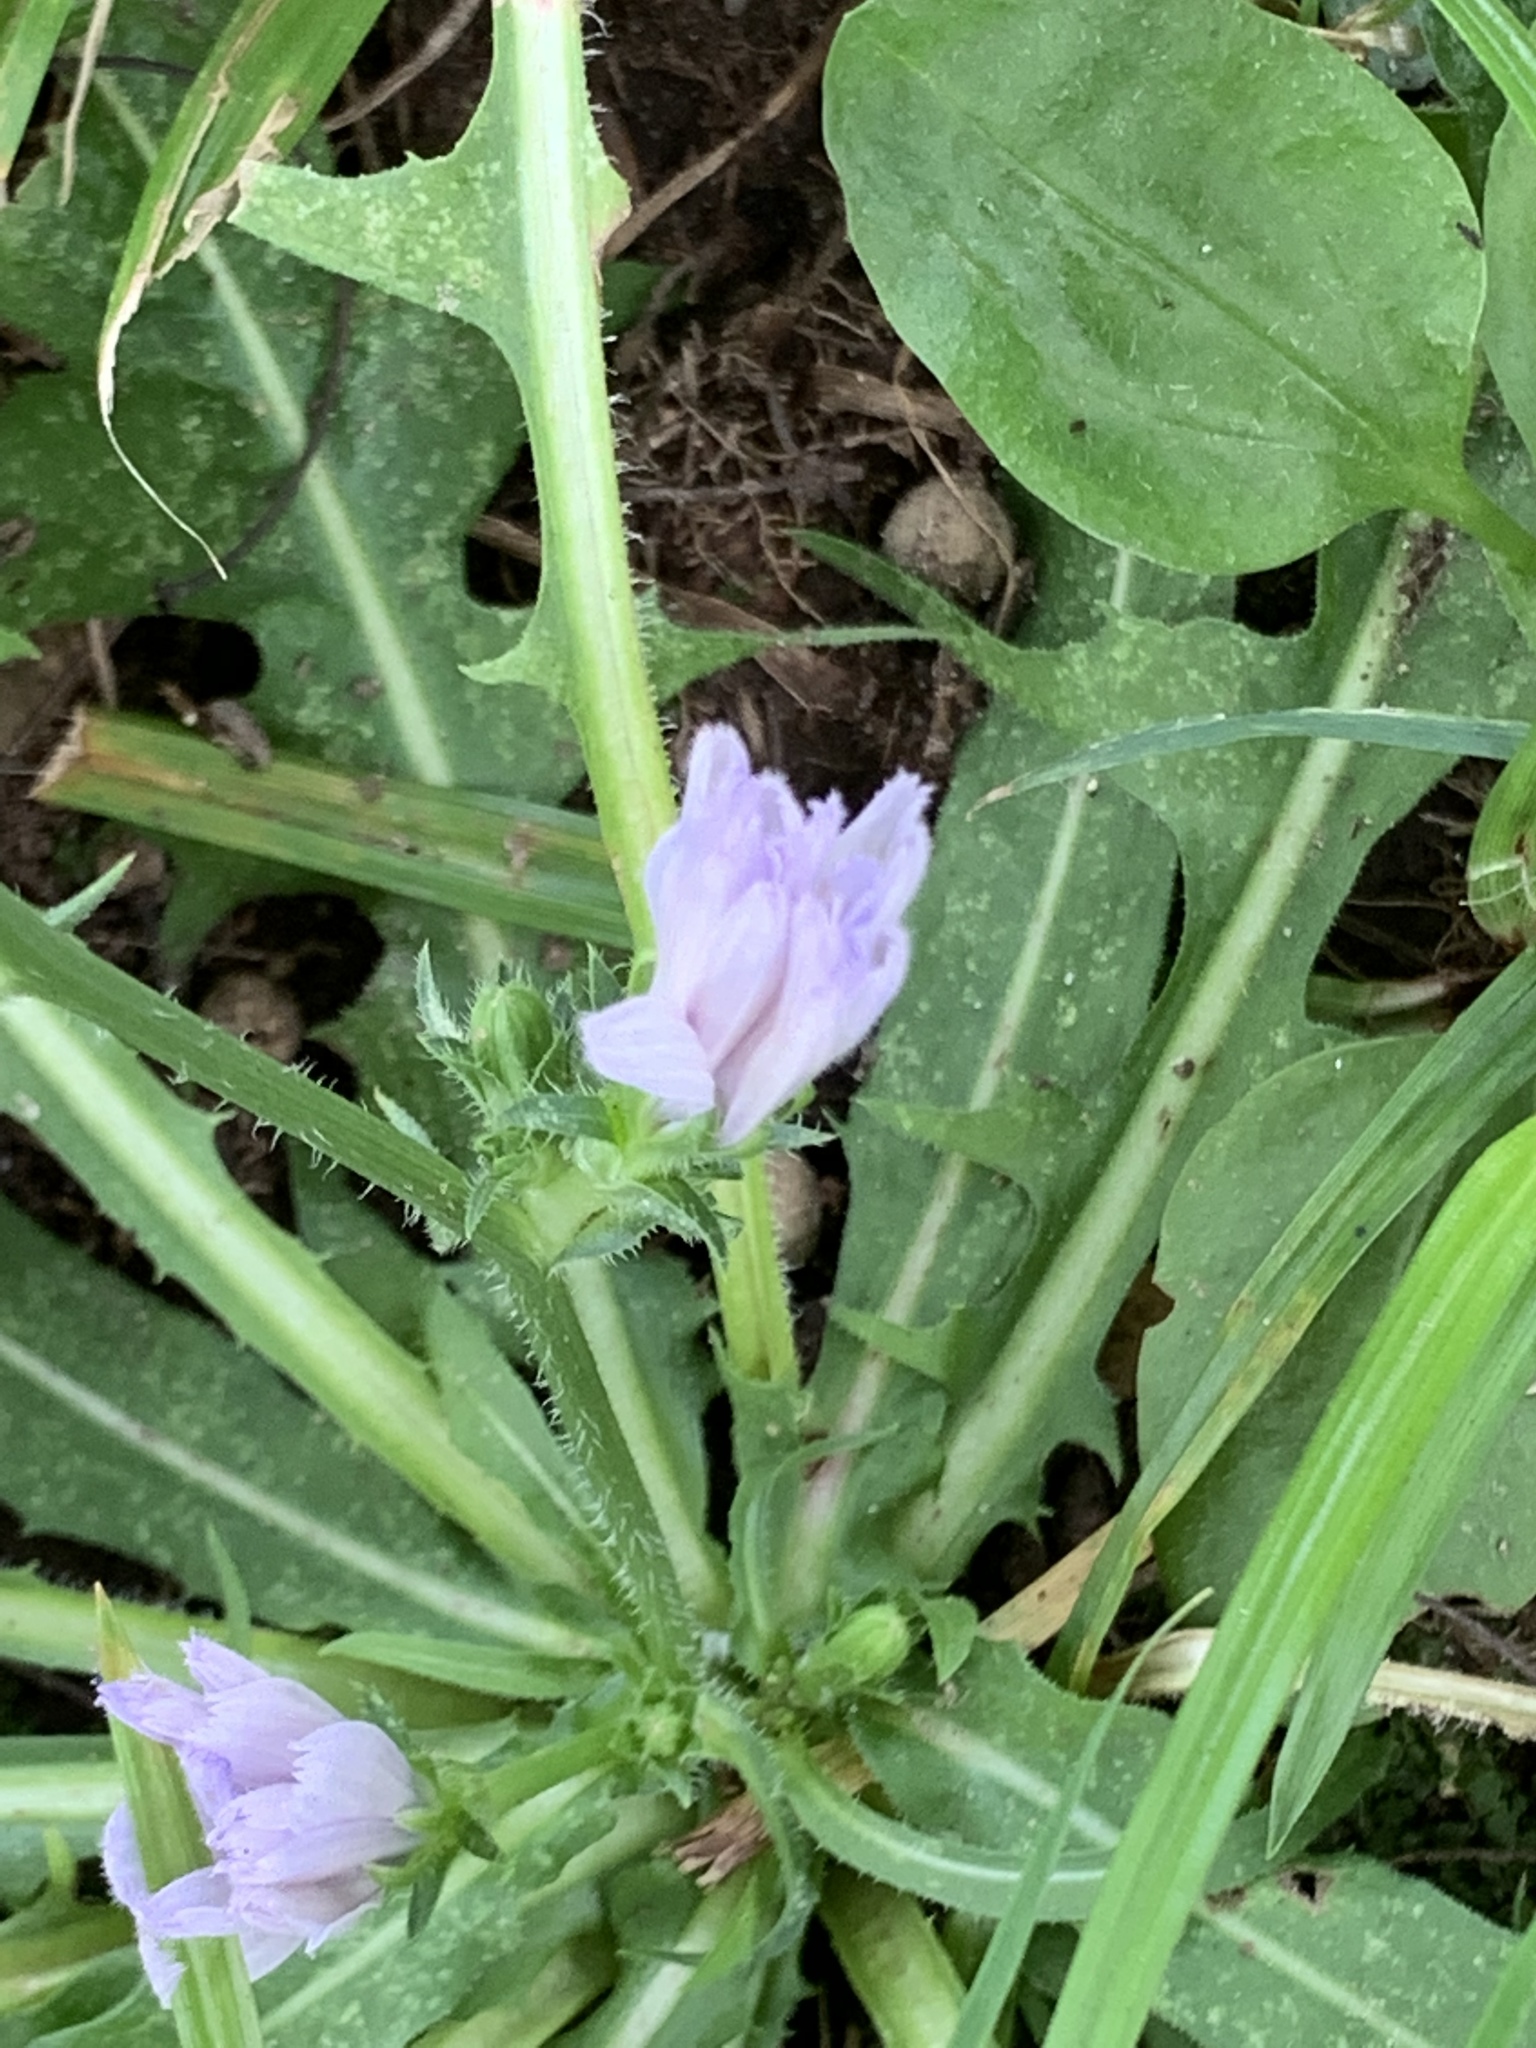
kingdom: Plantae
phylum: Tracheophyta
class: Magnoliopsida
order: Asterales
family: Asteraceae
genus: Cichorium
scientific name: Cichorium intybus
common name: Chicory
